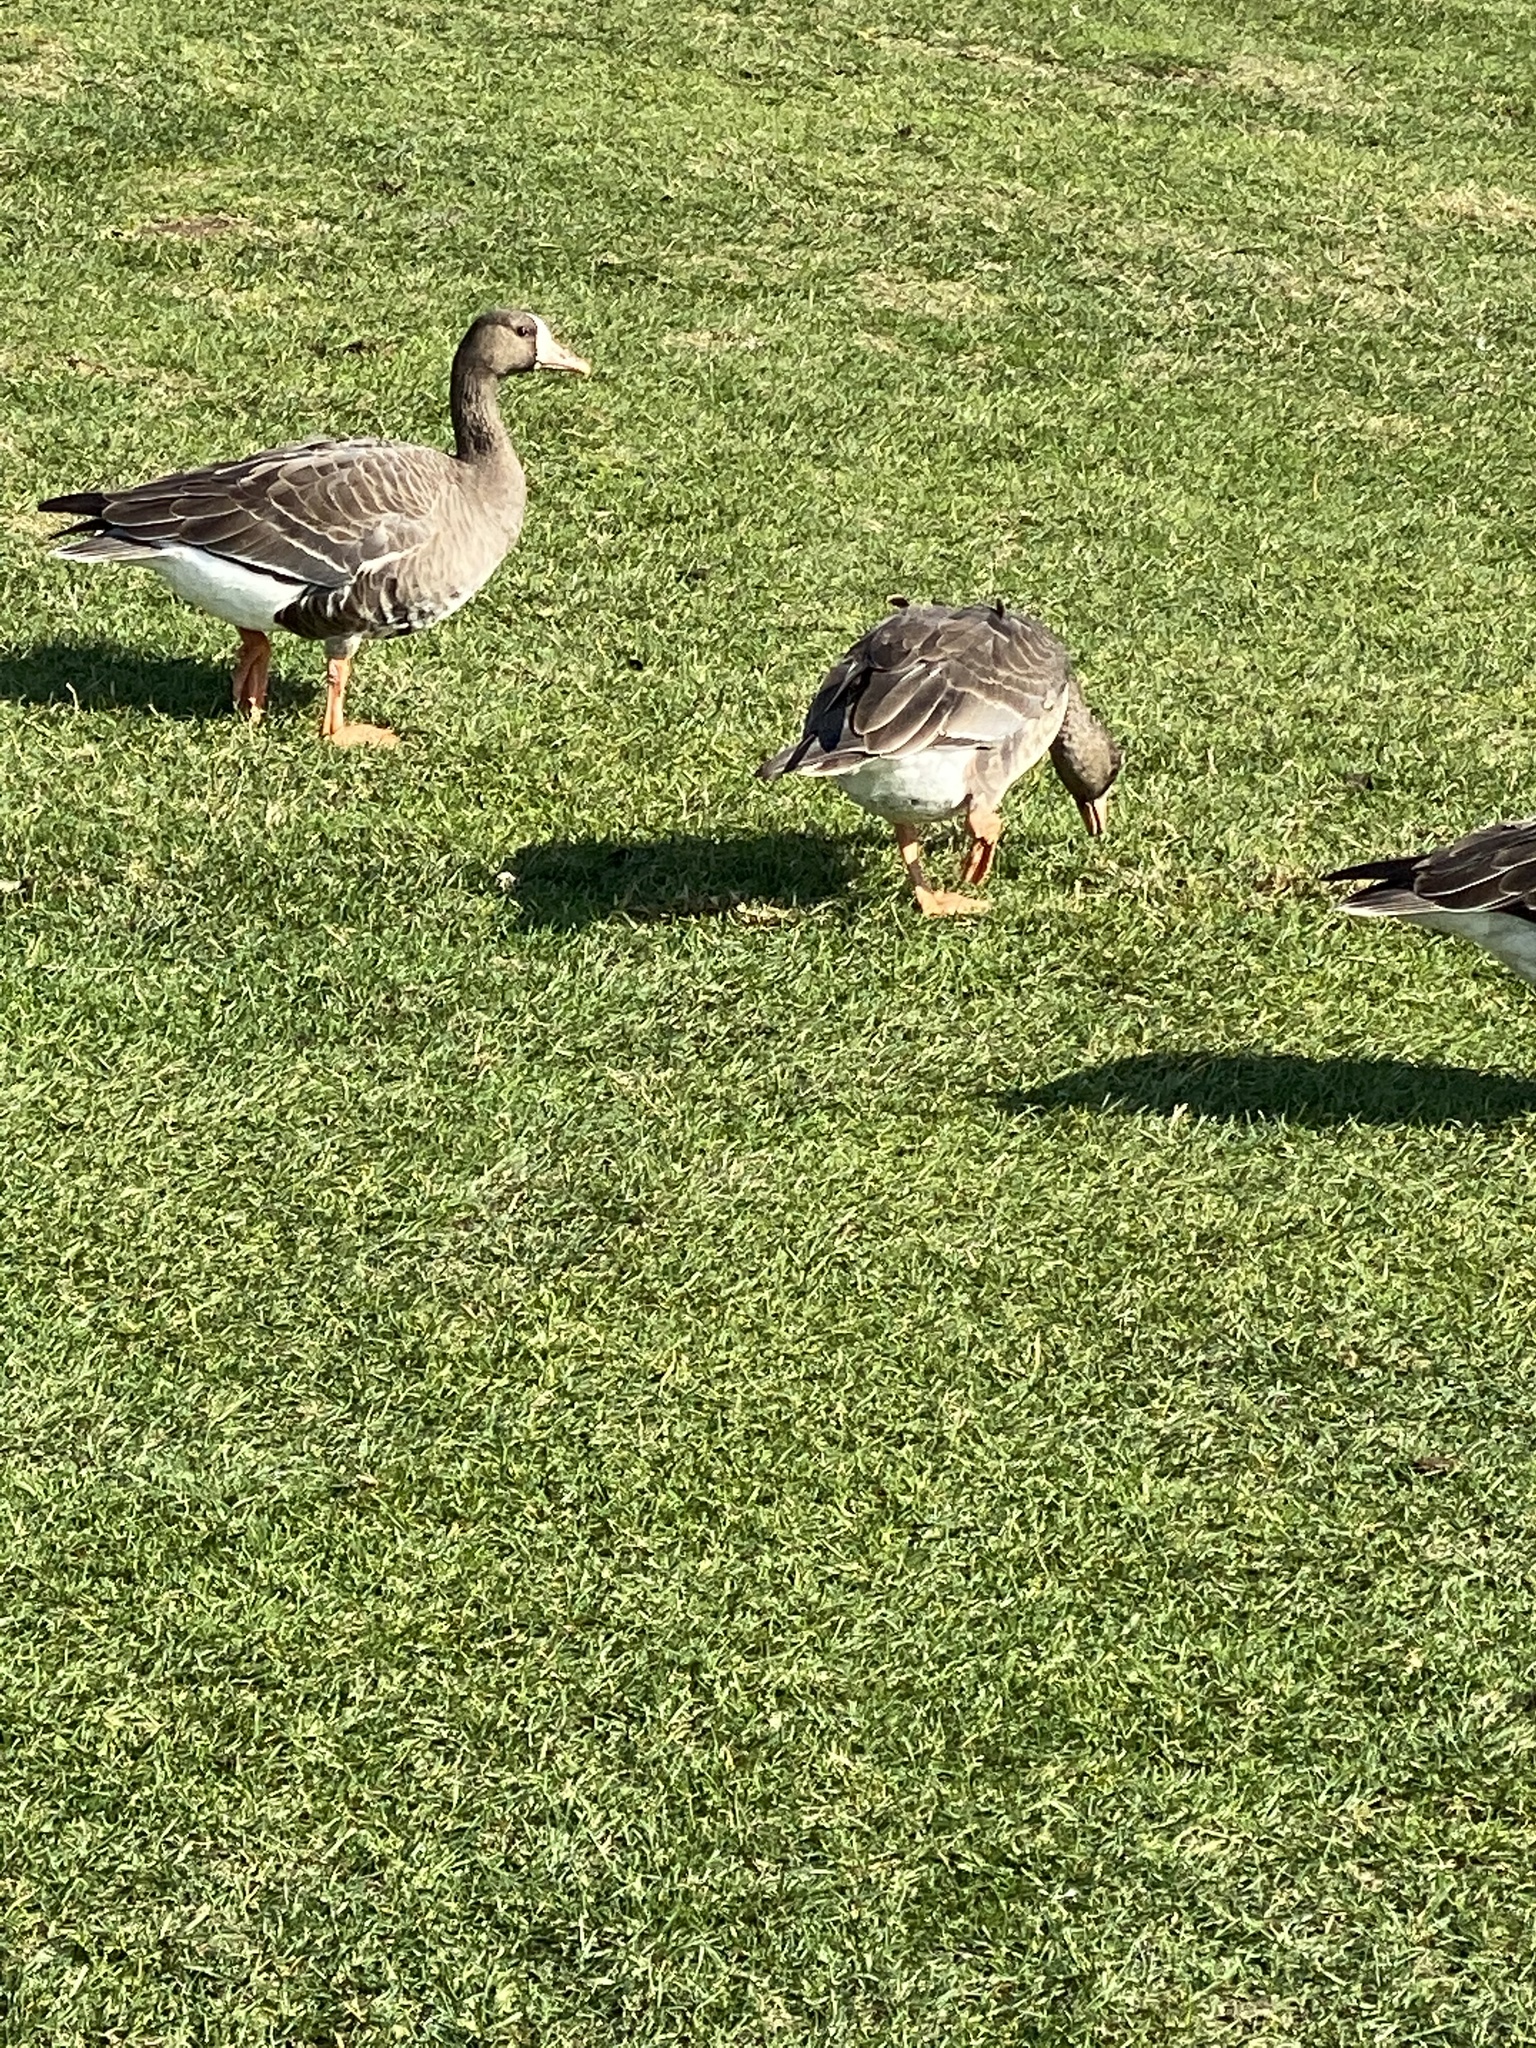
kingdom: Animalia
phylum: Chordata
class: Aves
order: Anseriformes
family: Anatidae
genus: Anser
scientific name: Anser albifrons
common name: Greater white-fronted goose
